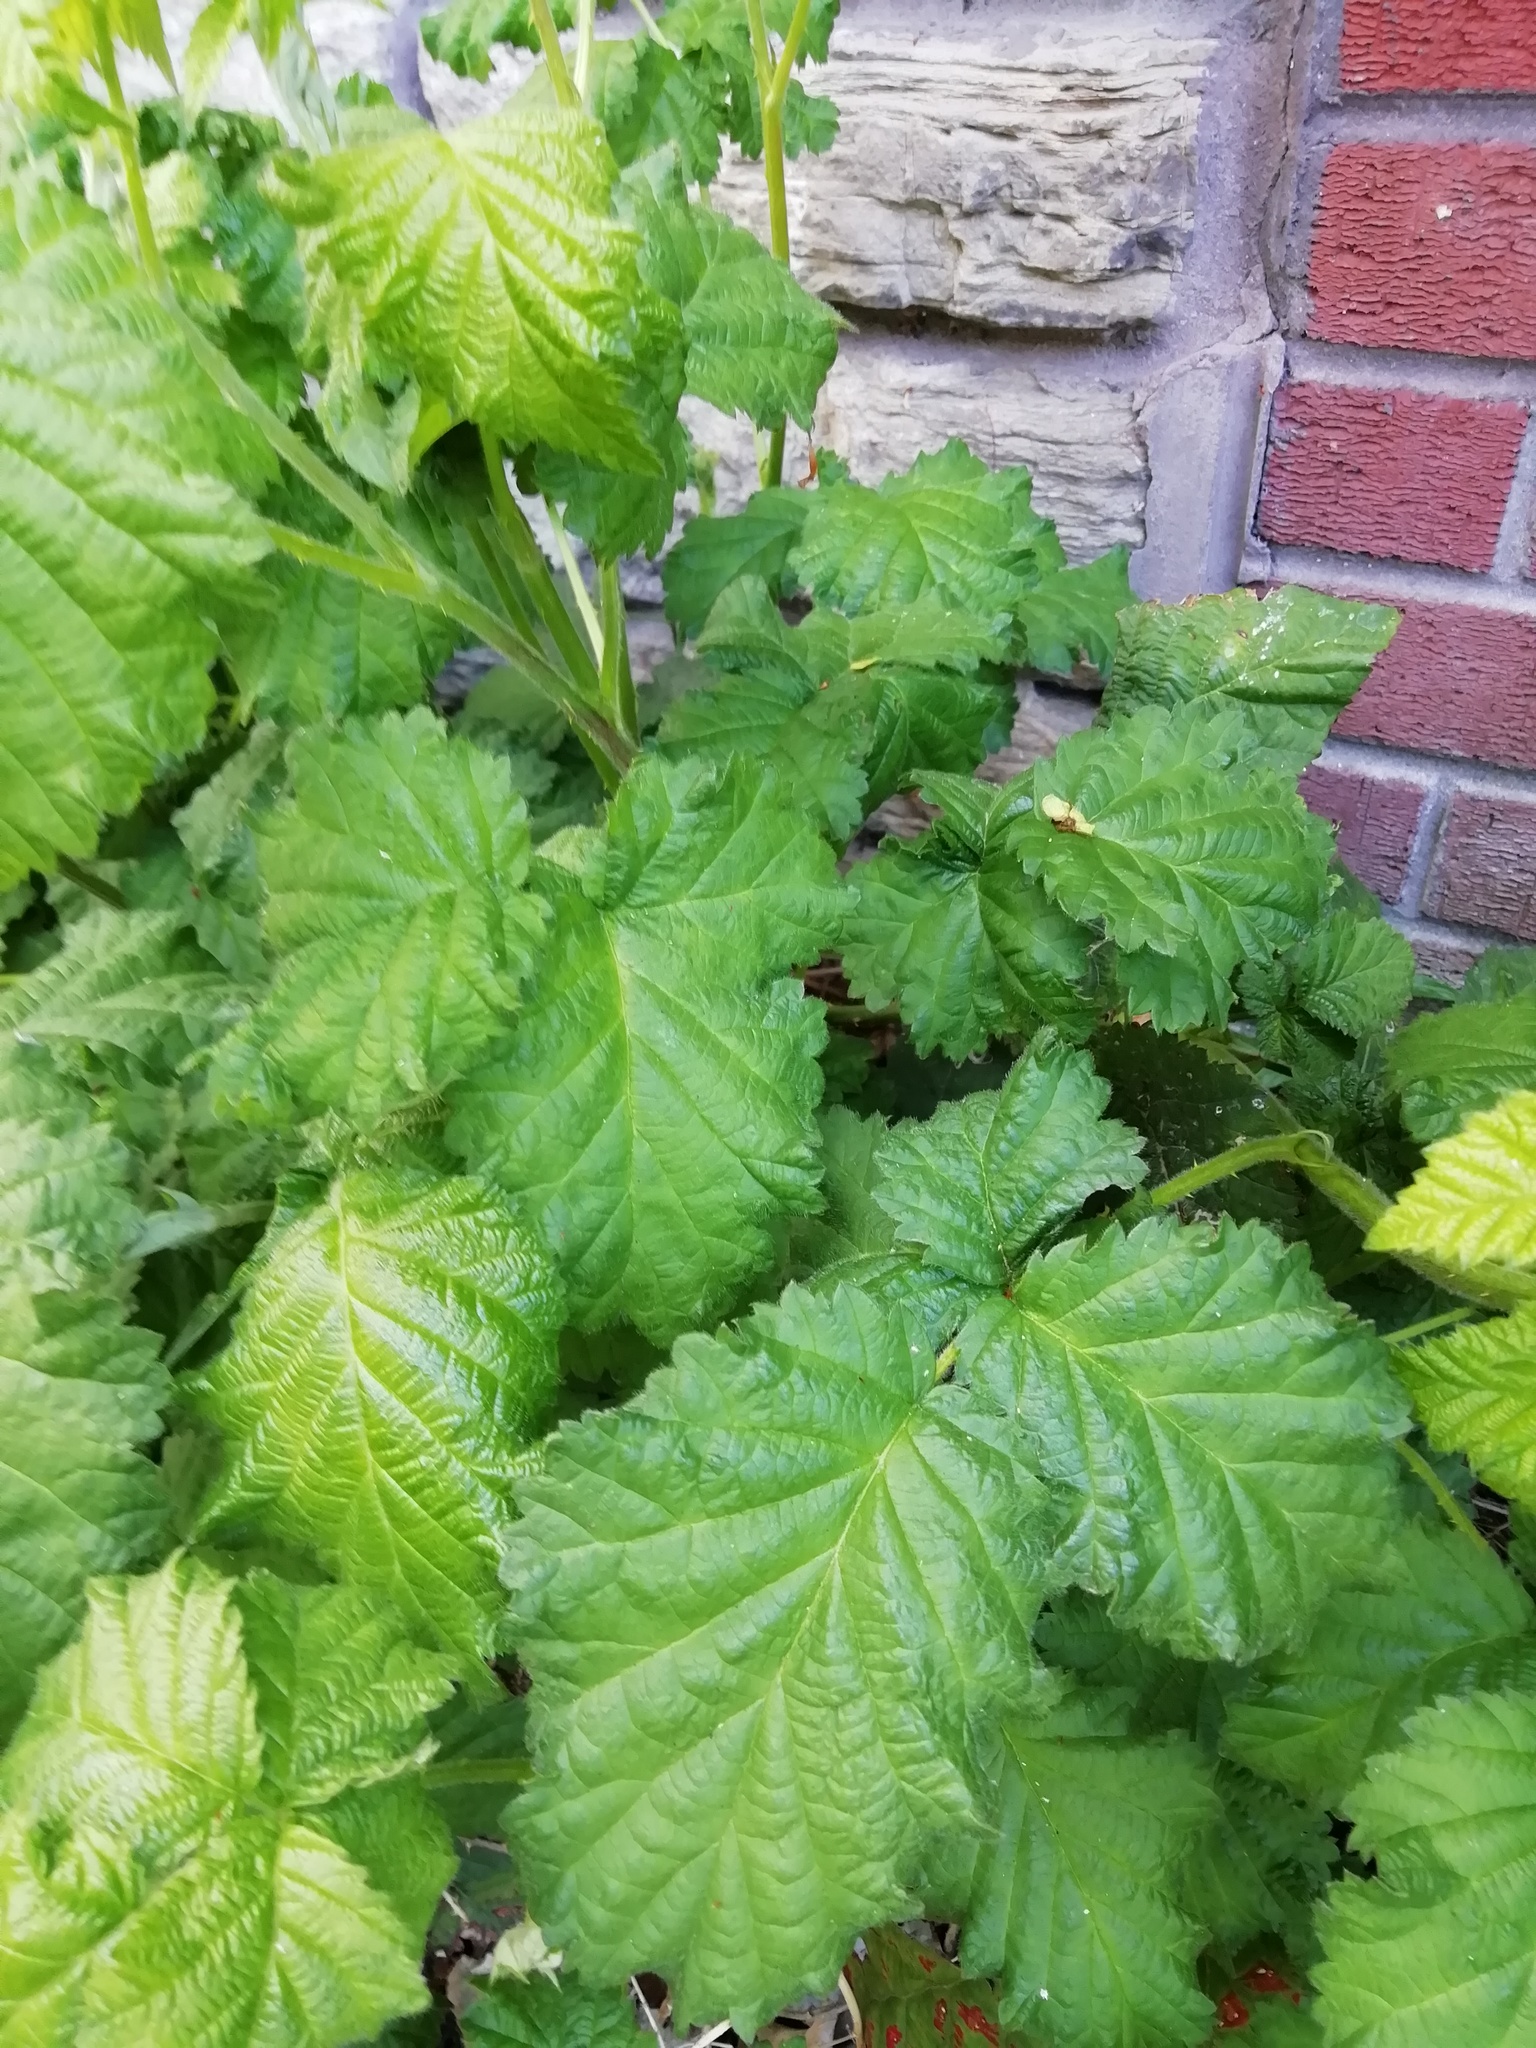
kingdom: Plantae
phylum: Tracheophyta
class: Magnoliopsida
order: Rosales
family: Rosaceae
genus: Rubus
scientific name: Rubus armeniacus
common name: Himalayan blackberry
